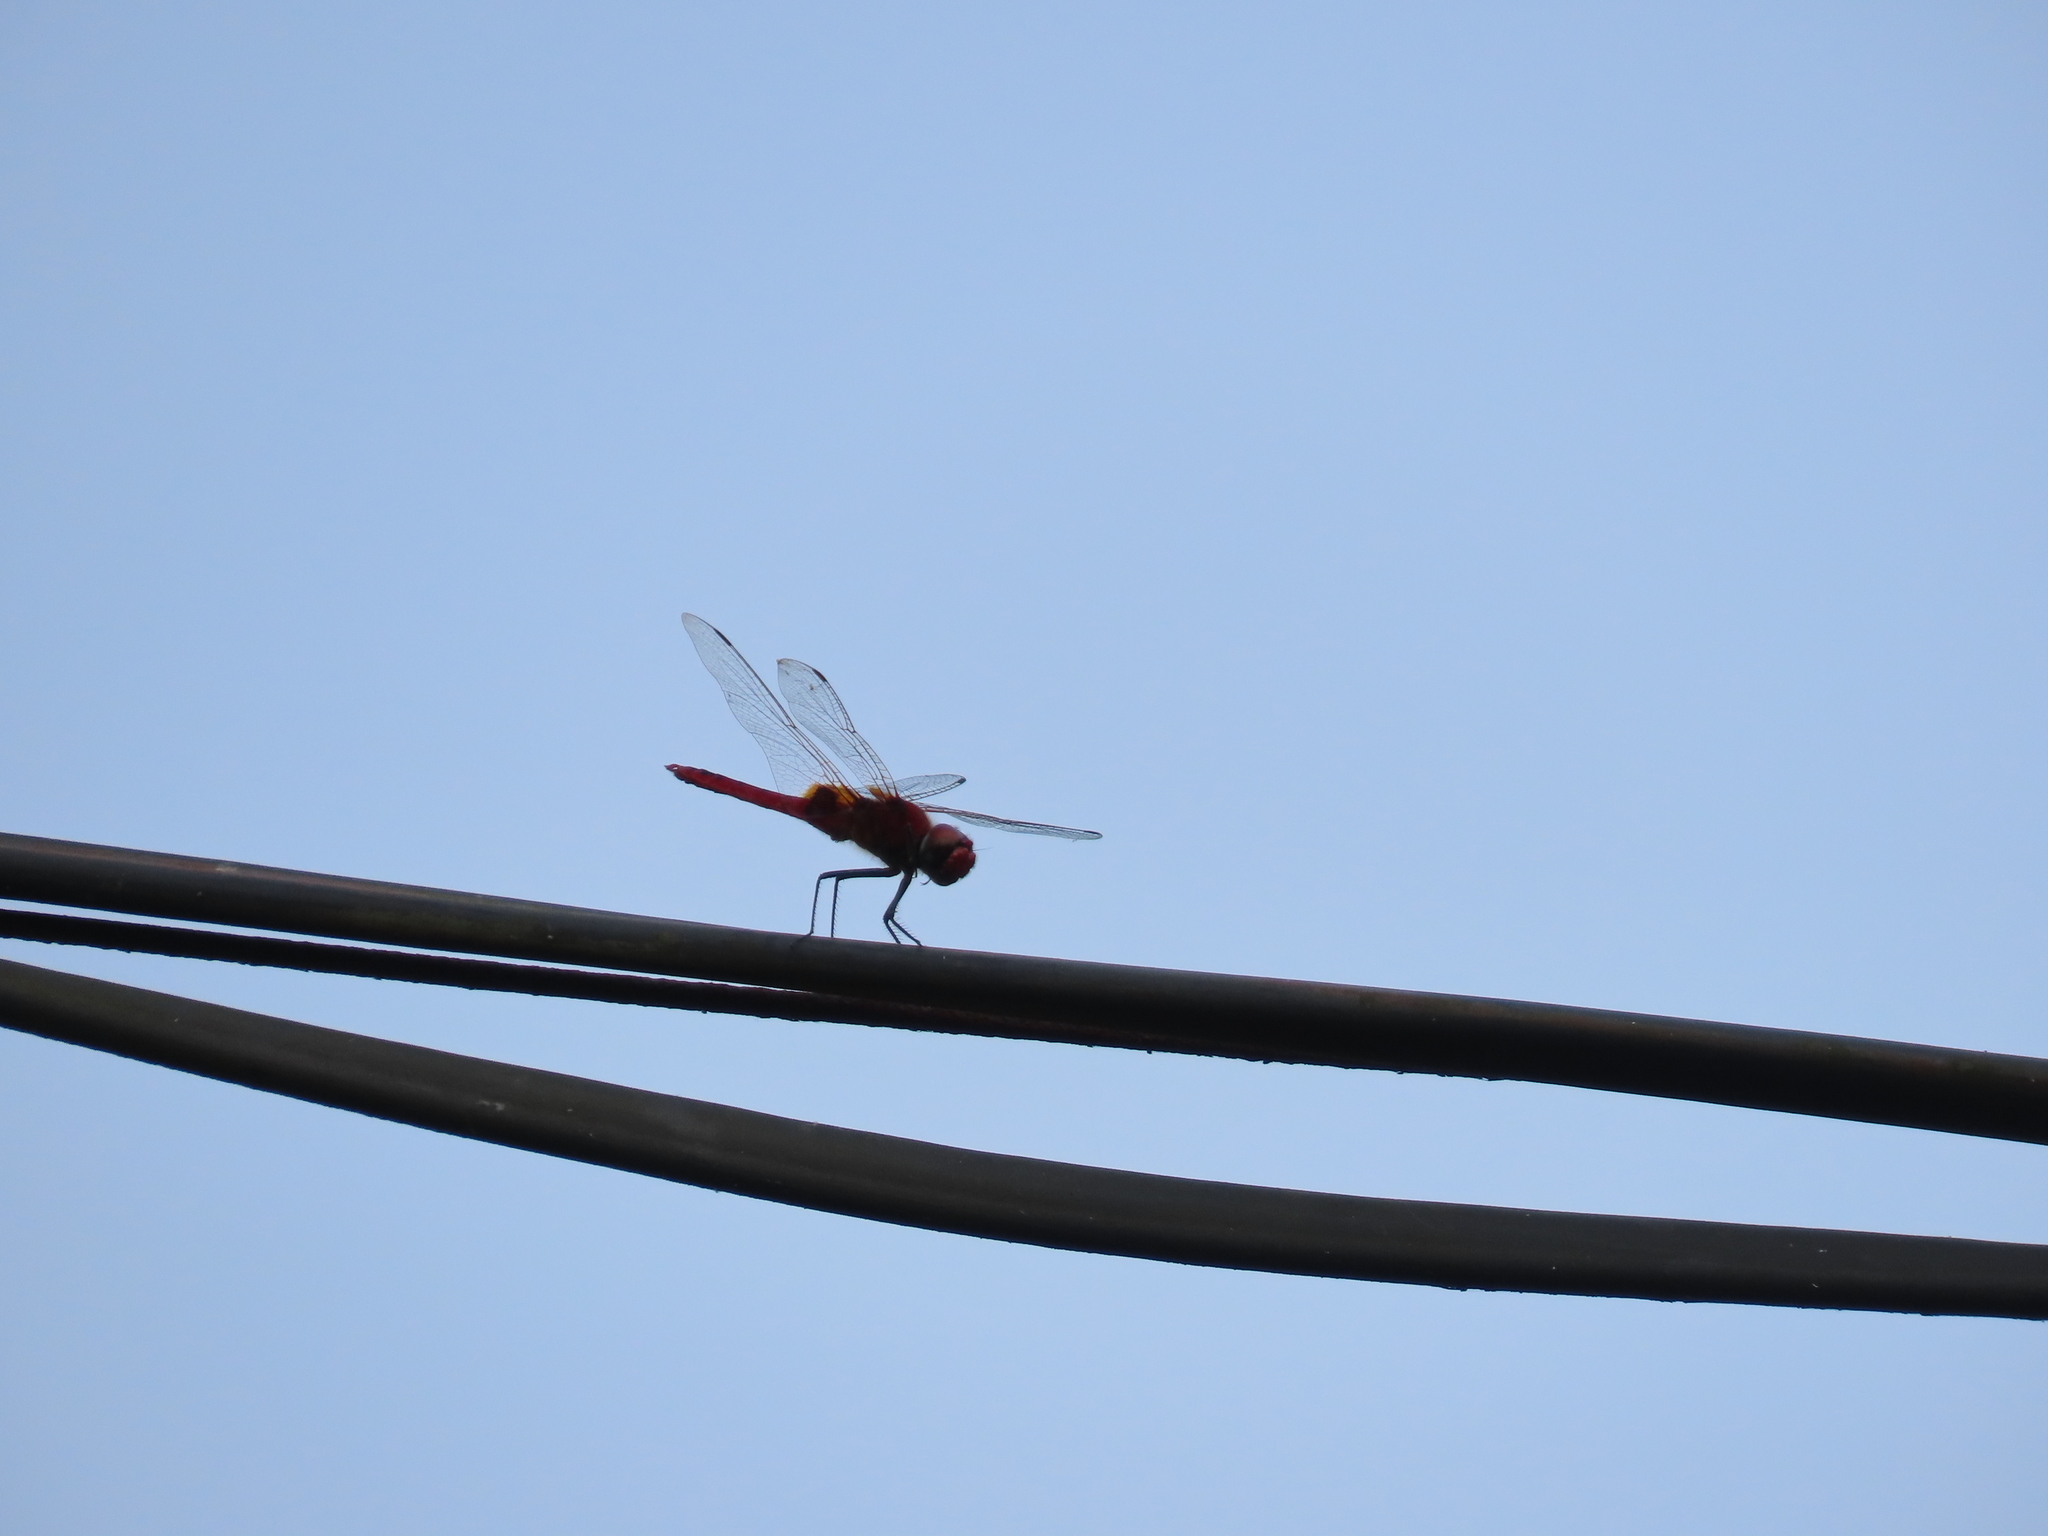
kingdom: Animalia
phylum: Arthropoda
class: Insecta
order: Odonata
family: Libellulidae
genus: Urothemis
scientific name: Urothemis signata
